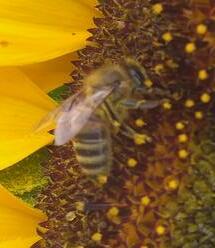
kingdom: Animalia
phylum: Arthropoda
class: Insecta
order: Hymenoptera
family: Apidae
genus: Apis
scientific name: Apis mellifera
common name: Honey bee
